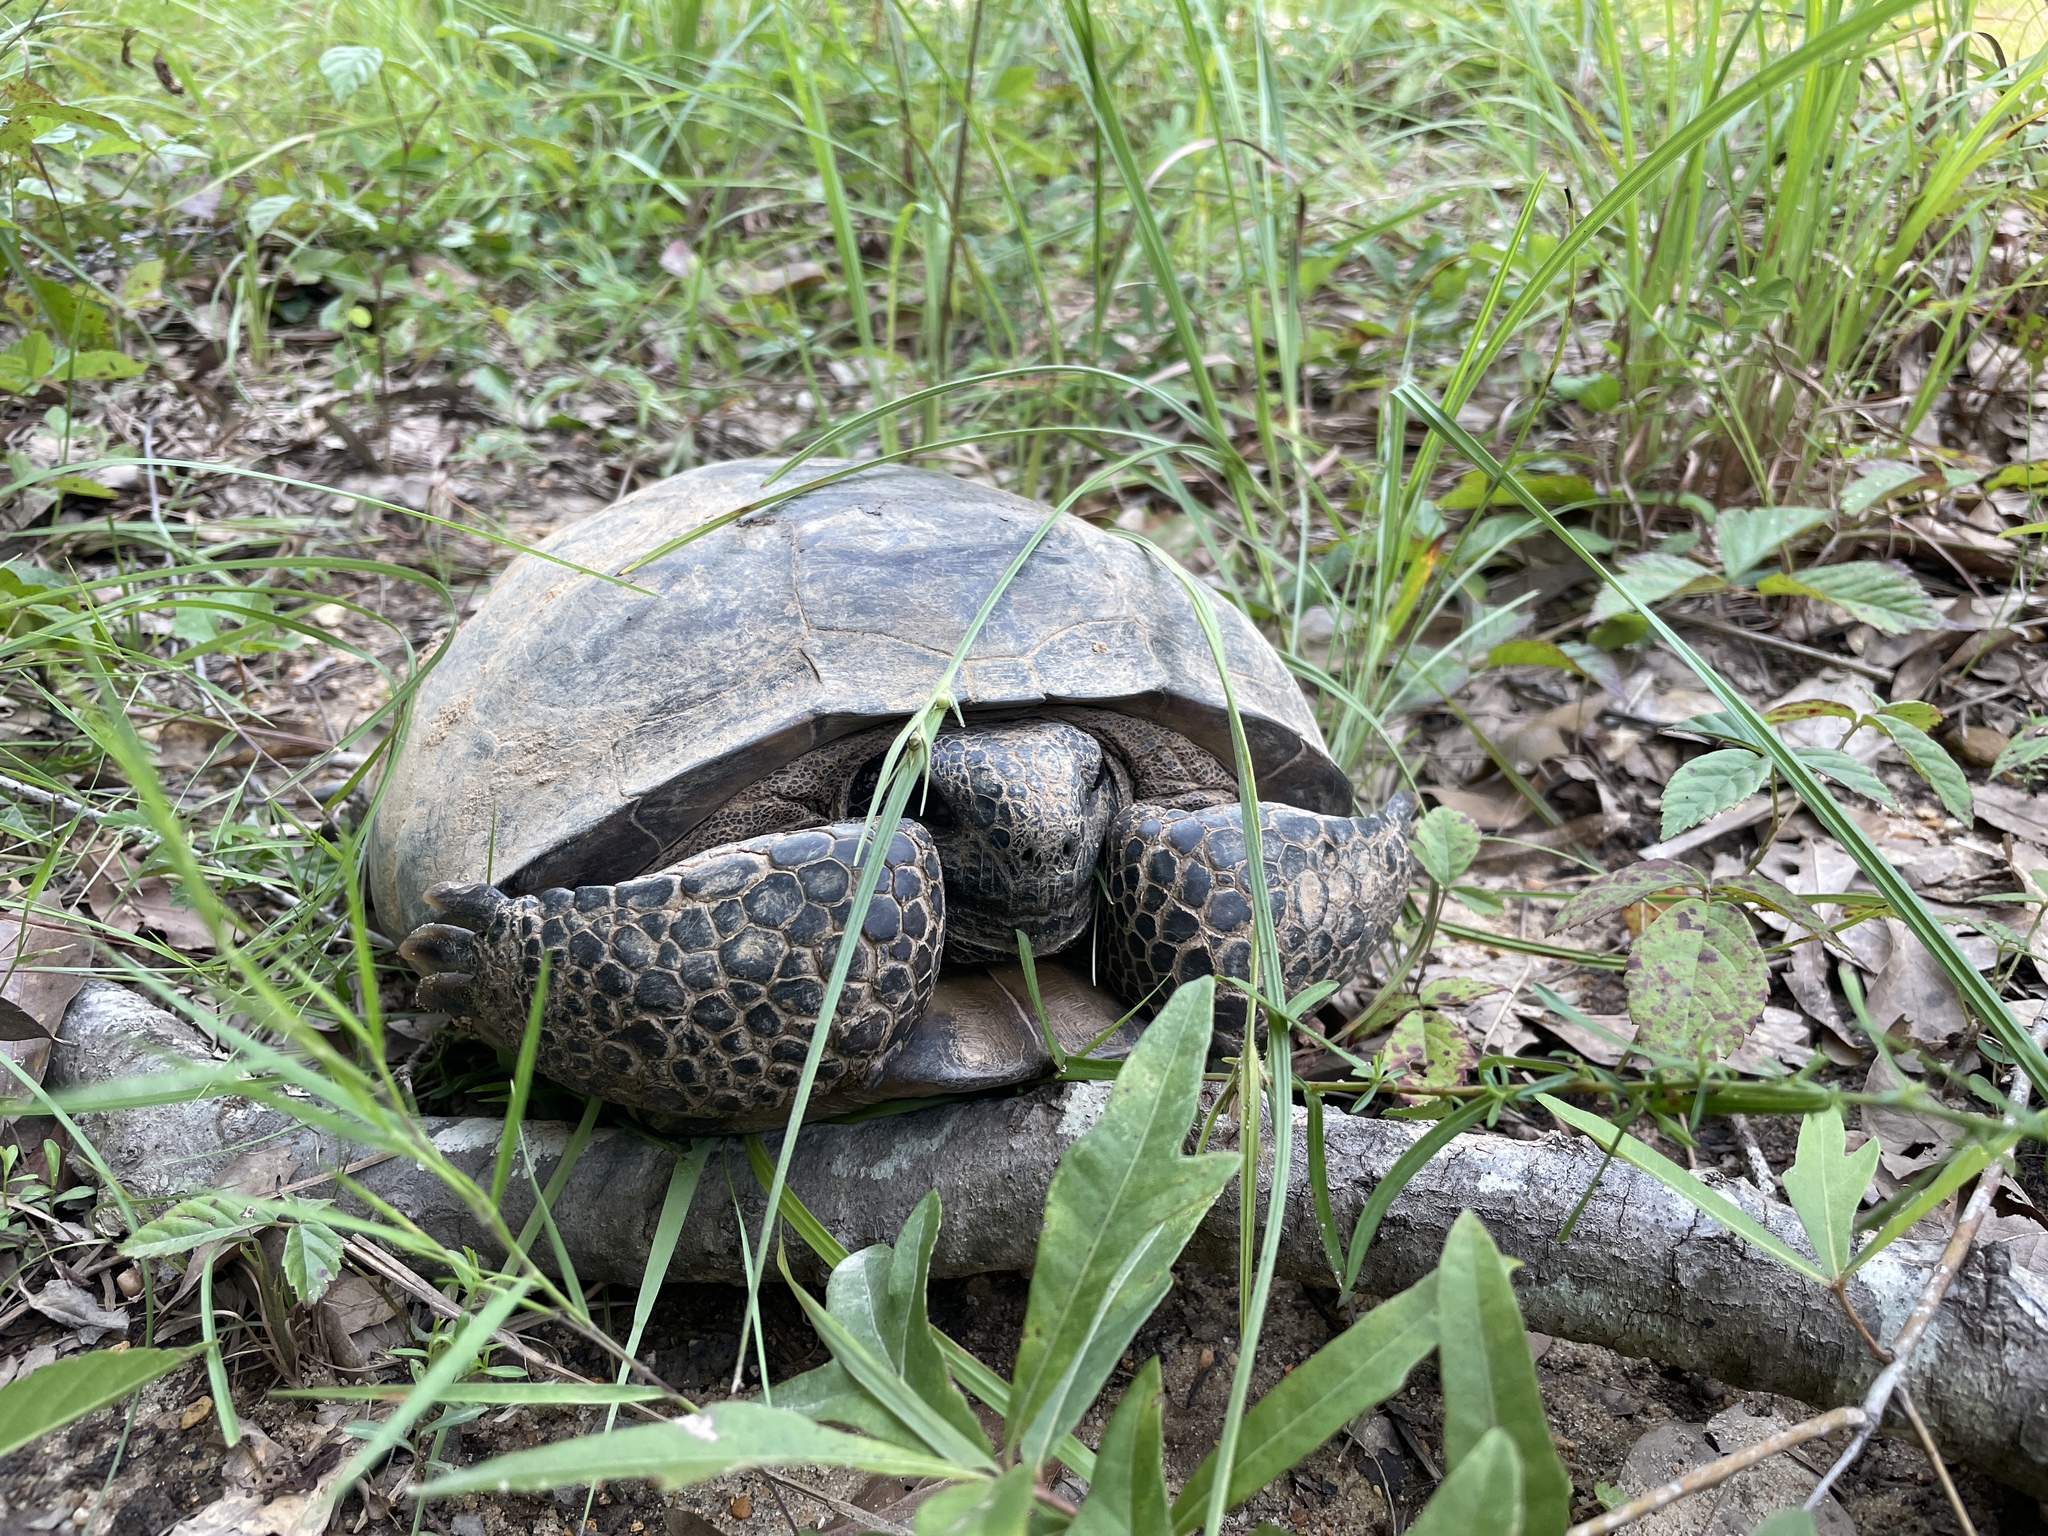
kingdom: Animalia
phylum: Chordata
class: Testudines
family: Testudinidae
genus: Gopherus
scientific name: Gopherus polyphemus
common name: Florida gopher tortoise
